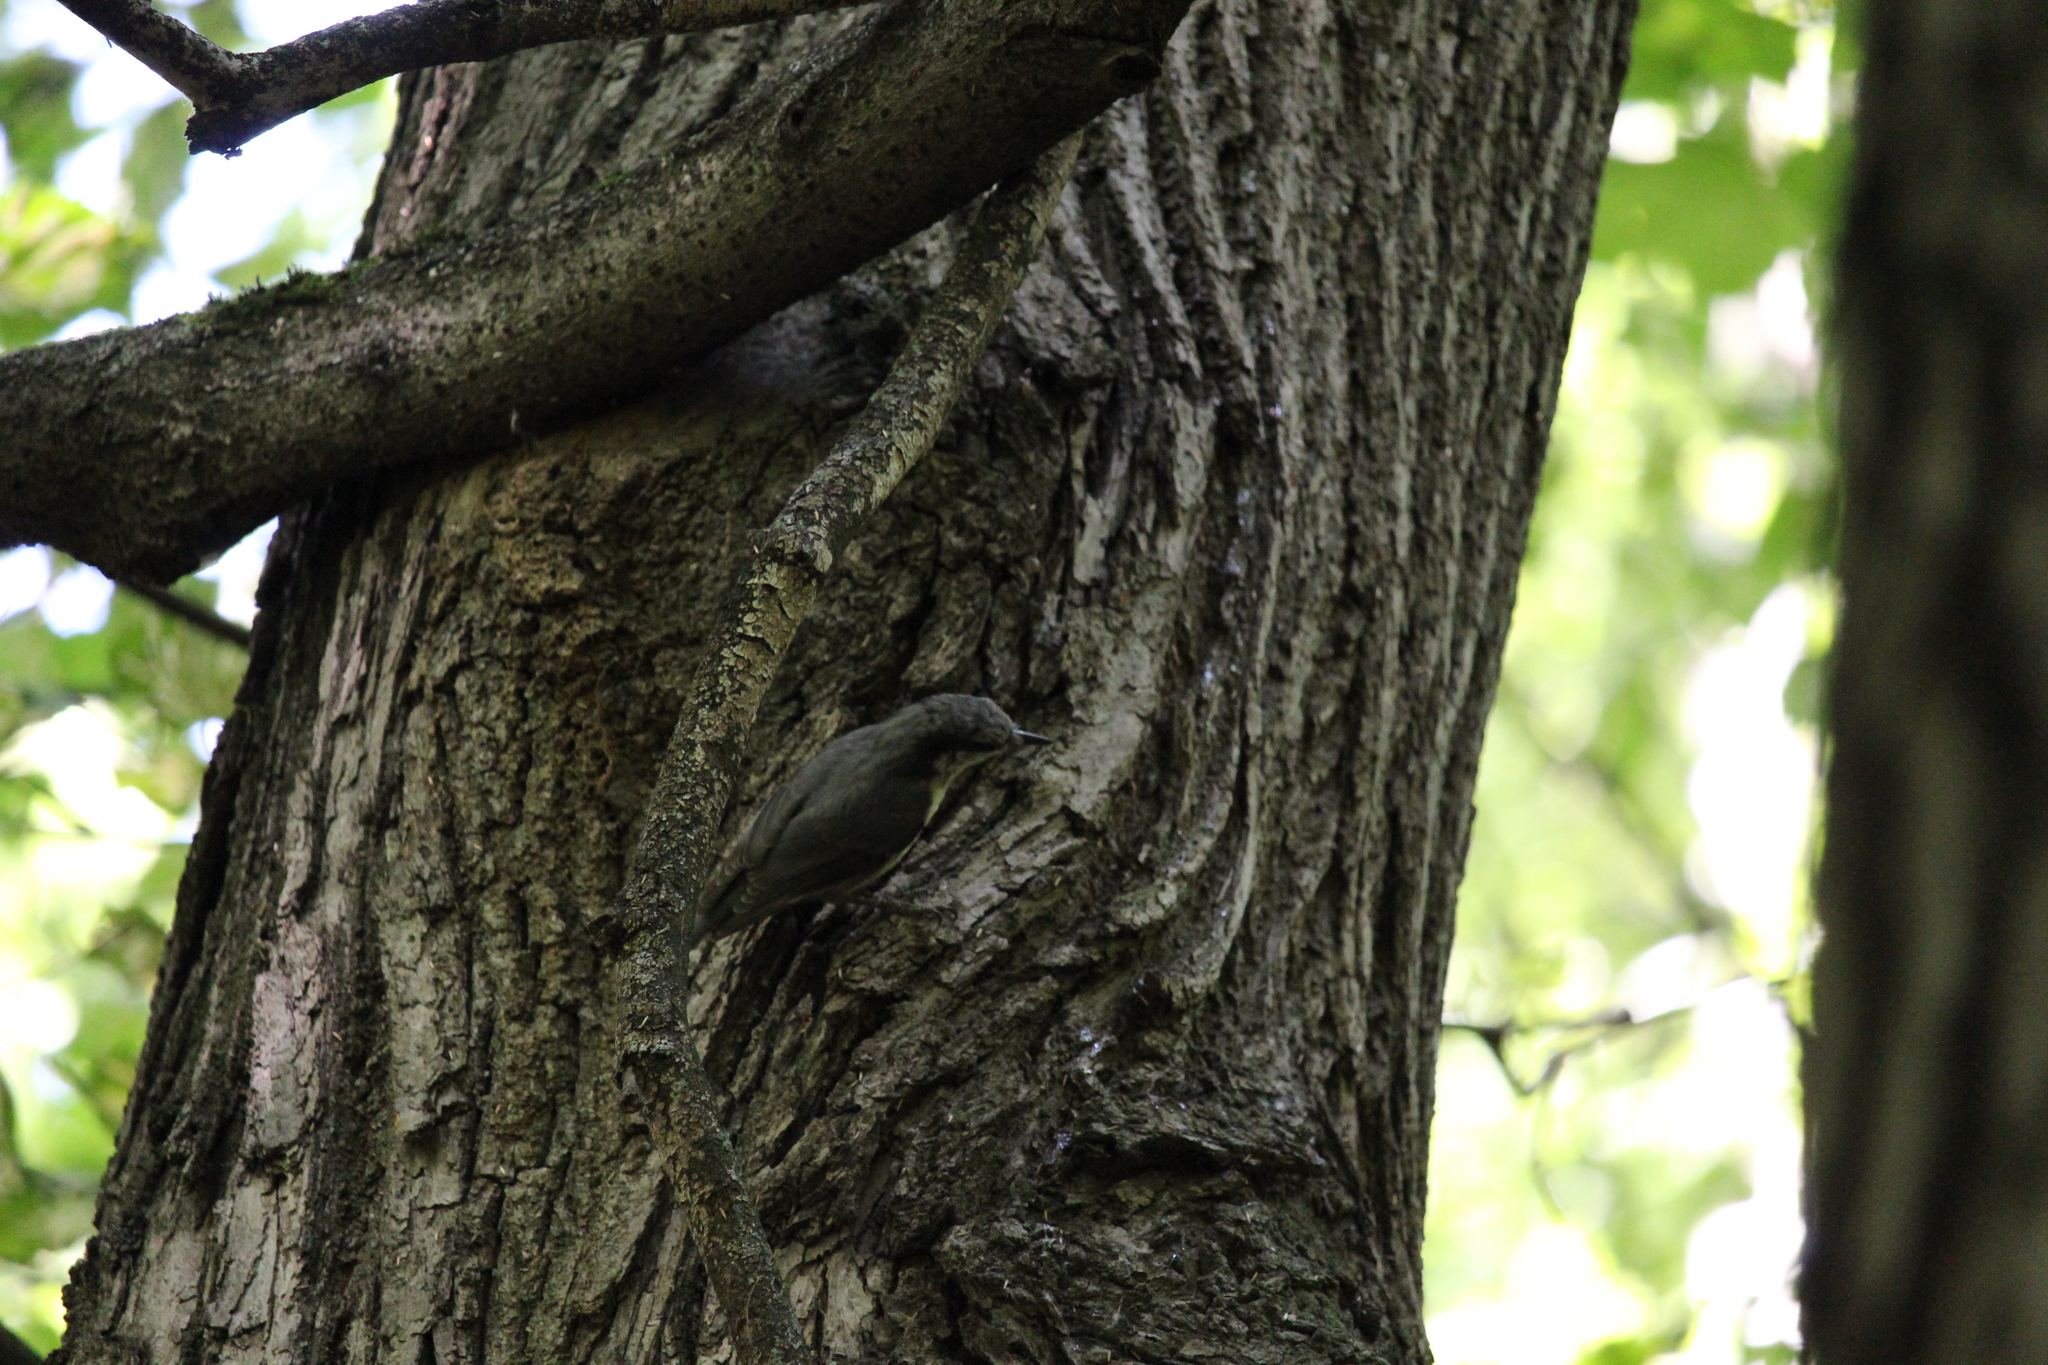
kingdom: Animalia
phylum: Chordata
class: Aves
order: Passeriformes
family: Sittidae
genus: Sitta
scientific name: Sitta europaea
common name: Eurasian nuthatch
